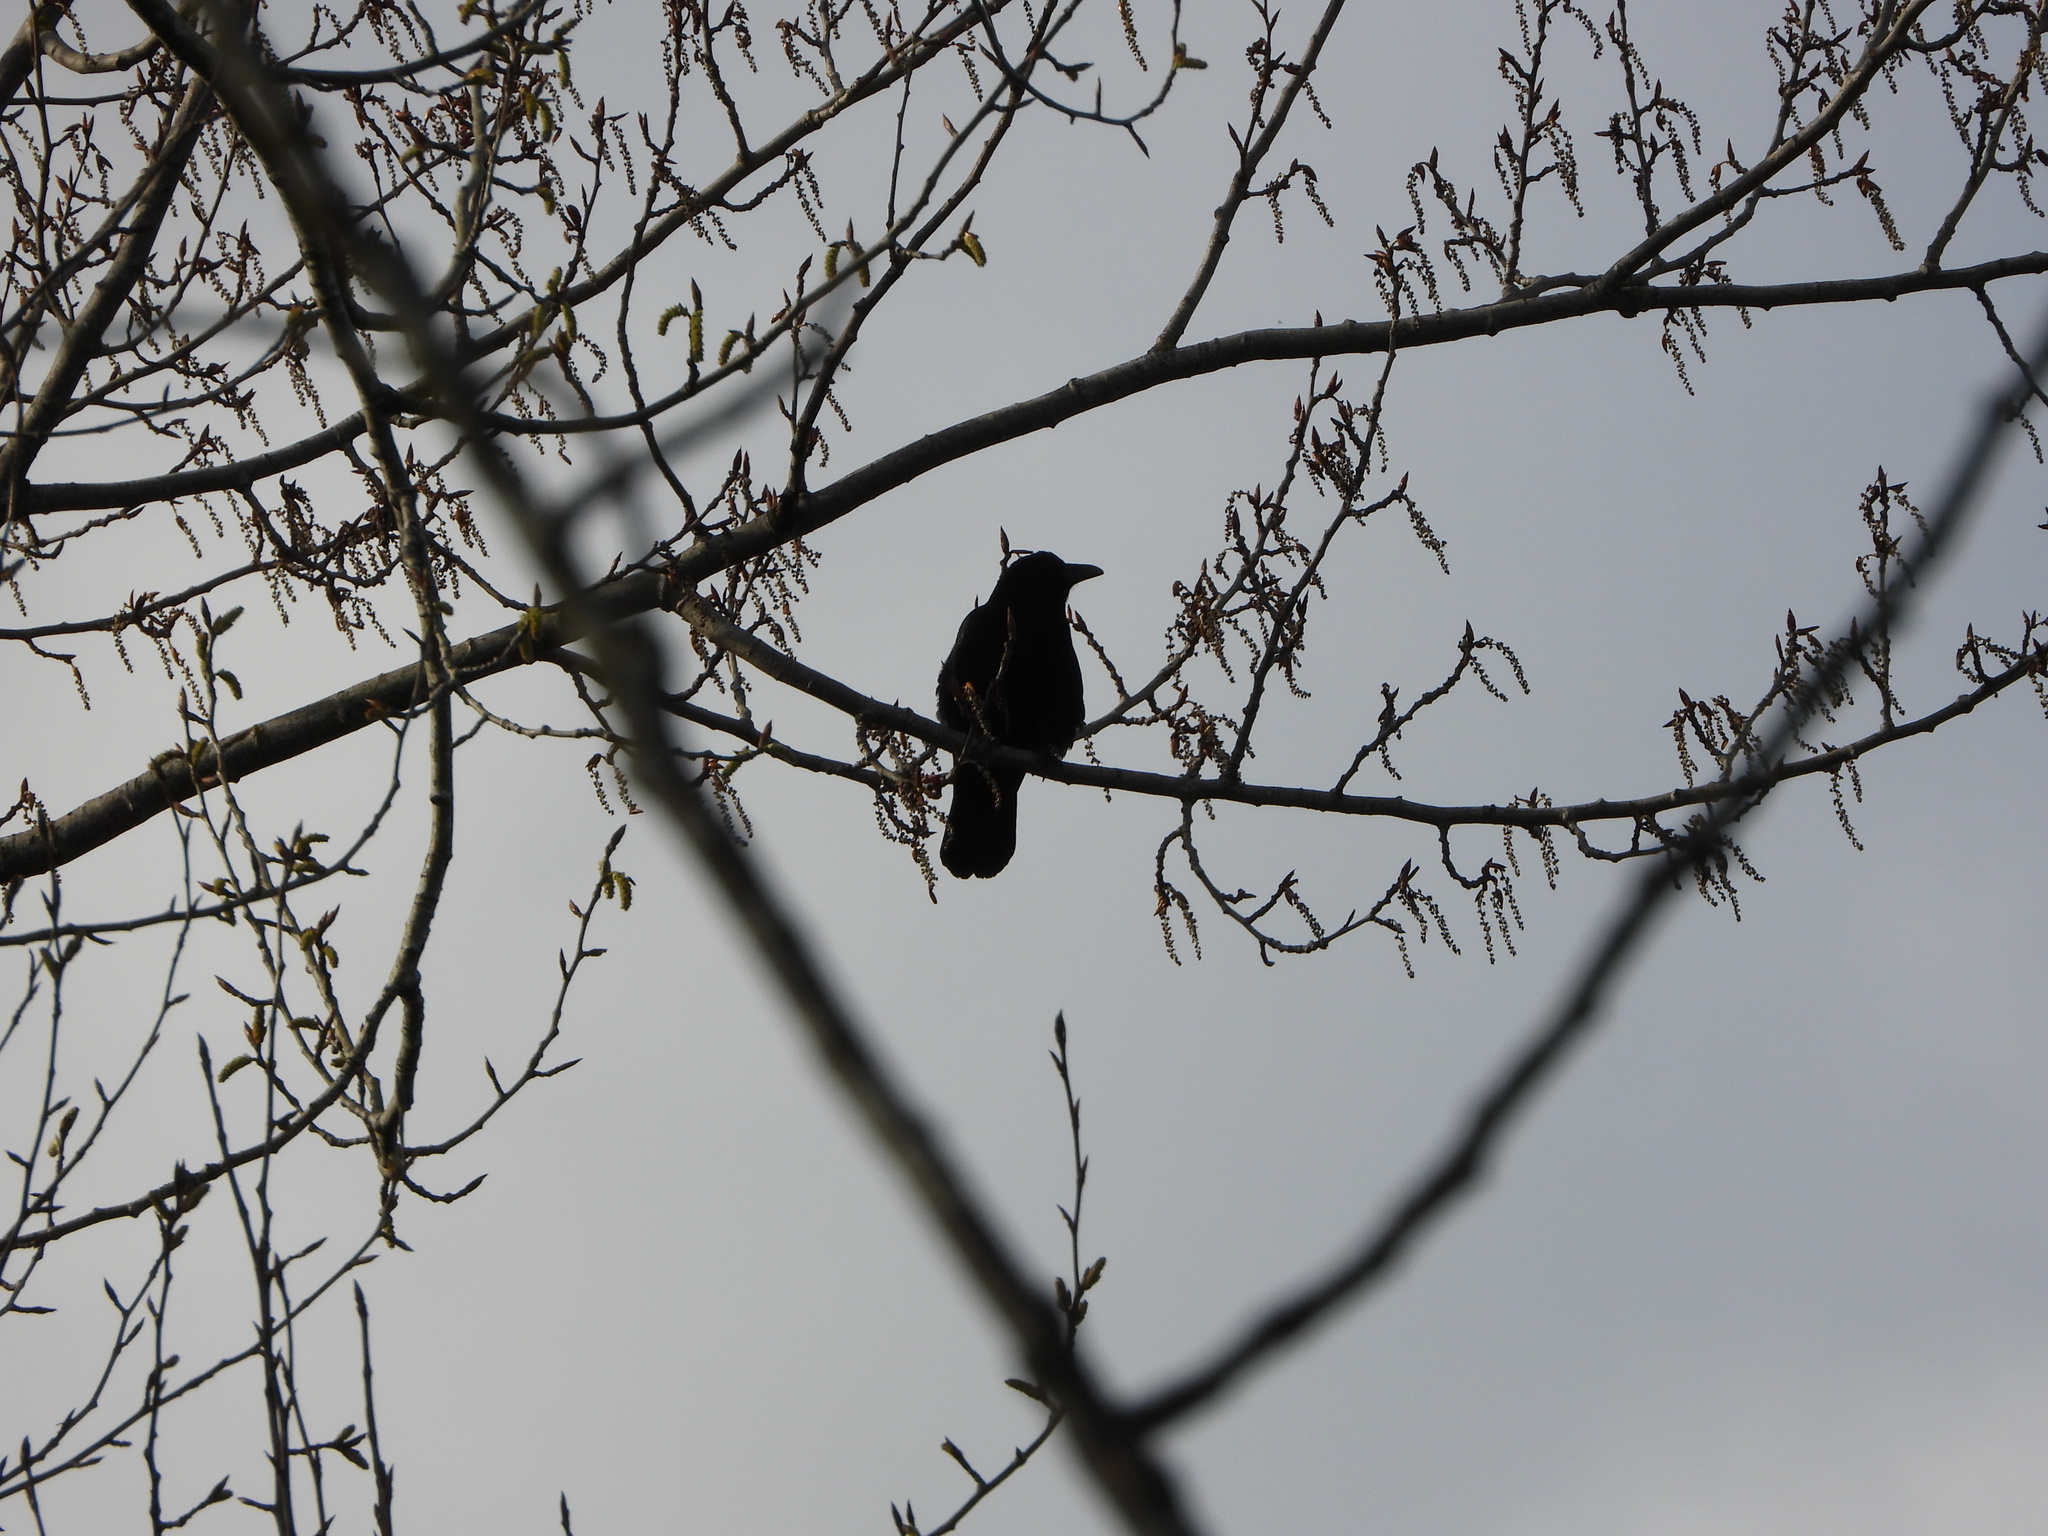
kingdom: Animalia
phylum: Chordata
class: Aves
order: Passeriformes
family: Corvidae
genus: Corvus
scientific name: Corvus brachyrhynchos
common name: American crow
